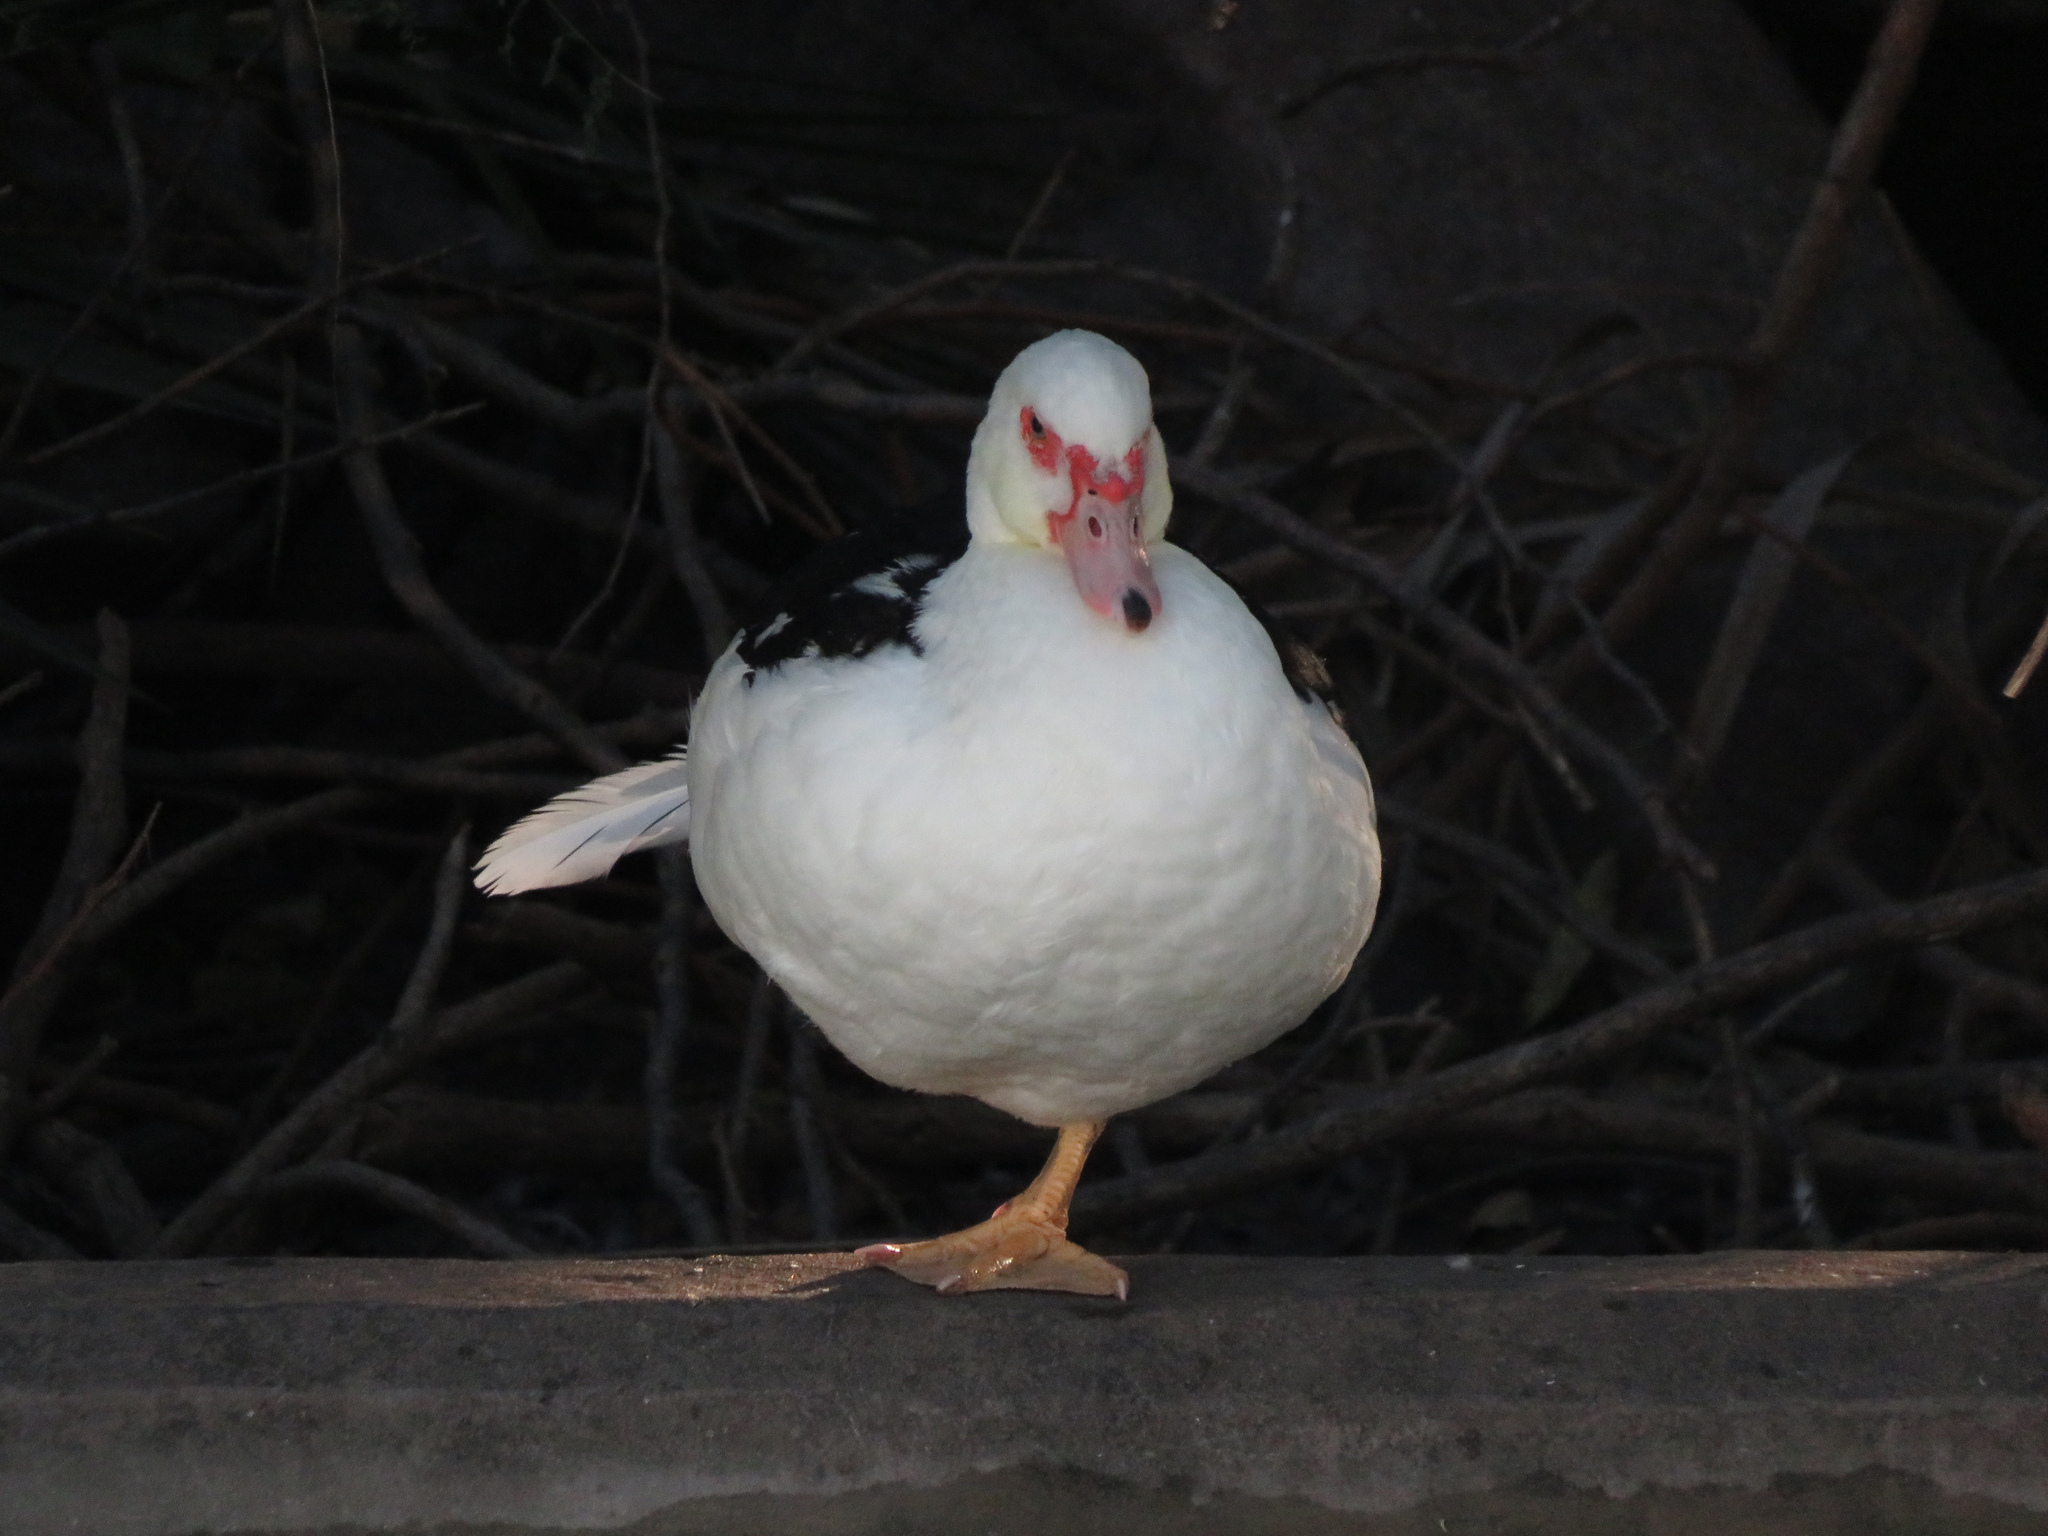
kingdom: Animalia
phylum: Chordata
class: Aves
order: Anseriformes
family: Anatidae
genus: Cairina
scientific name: Cairina moschata
